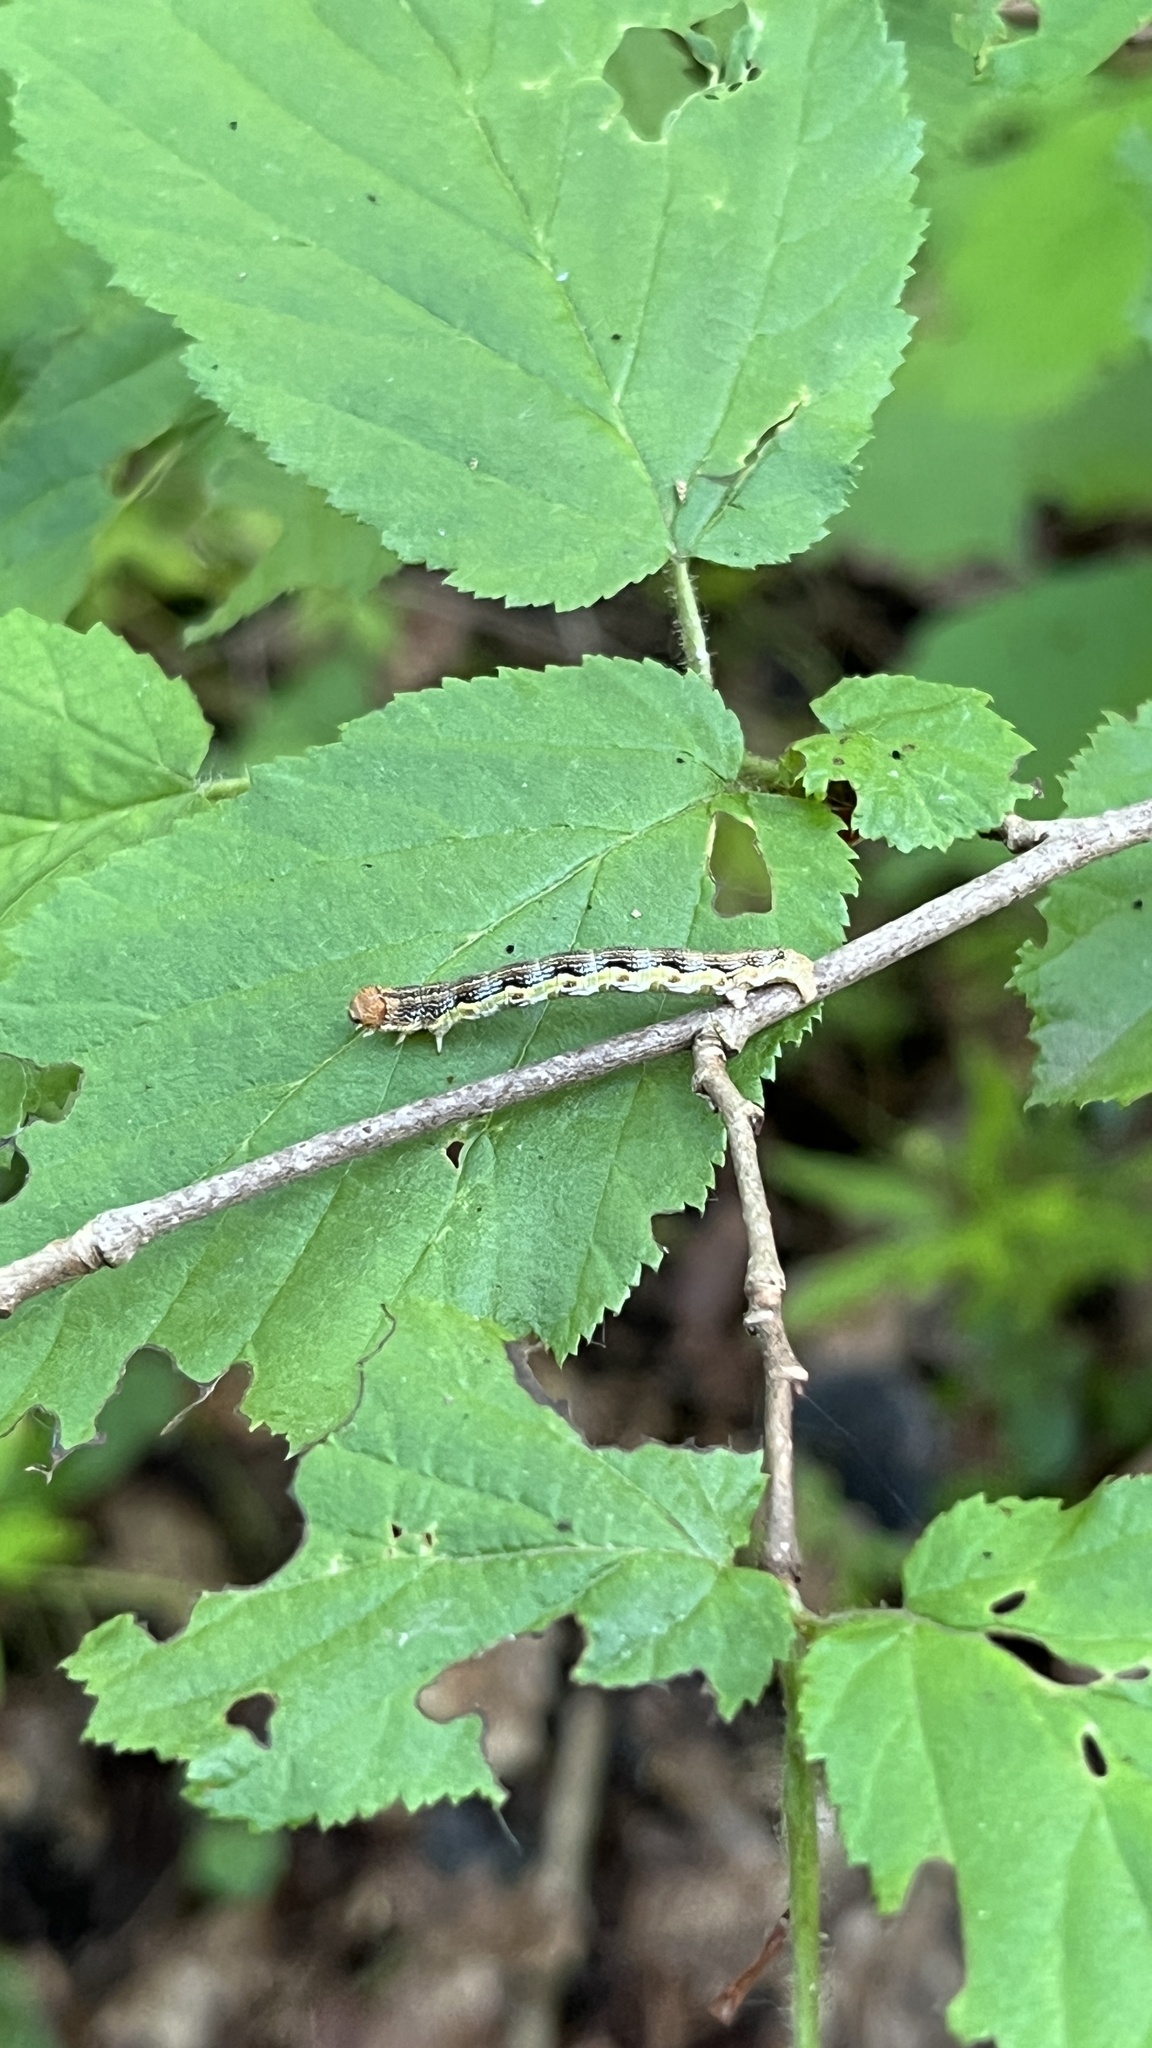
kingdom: Animalia
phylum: Arthropoda
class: Insecta
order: Lepidoptera
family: Geometridae
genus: Erannis
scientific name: Erannis defoliaria
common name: Mottled umber
